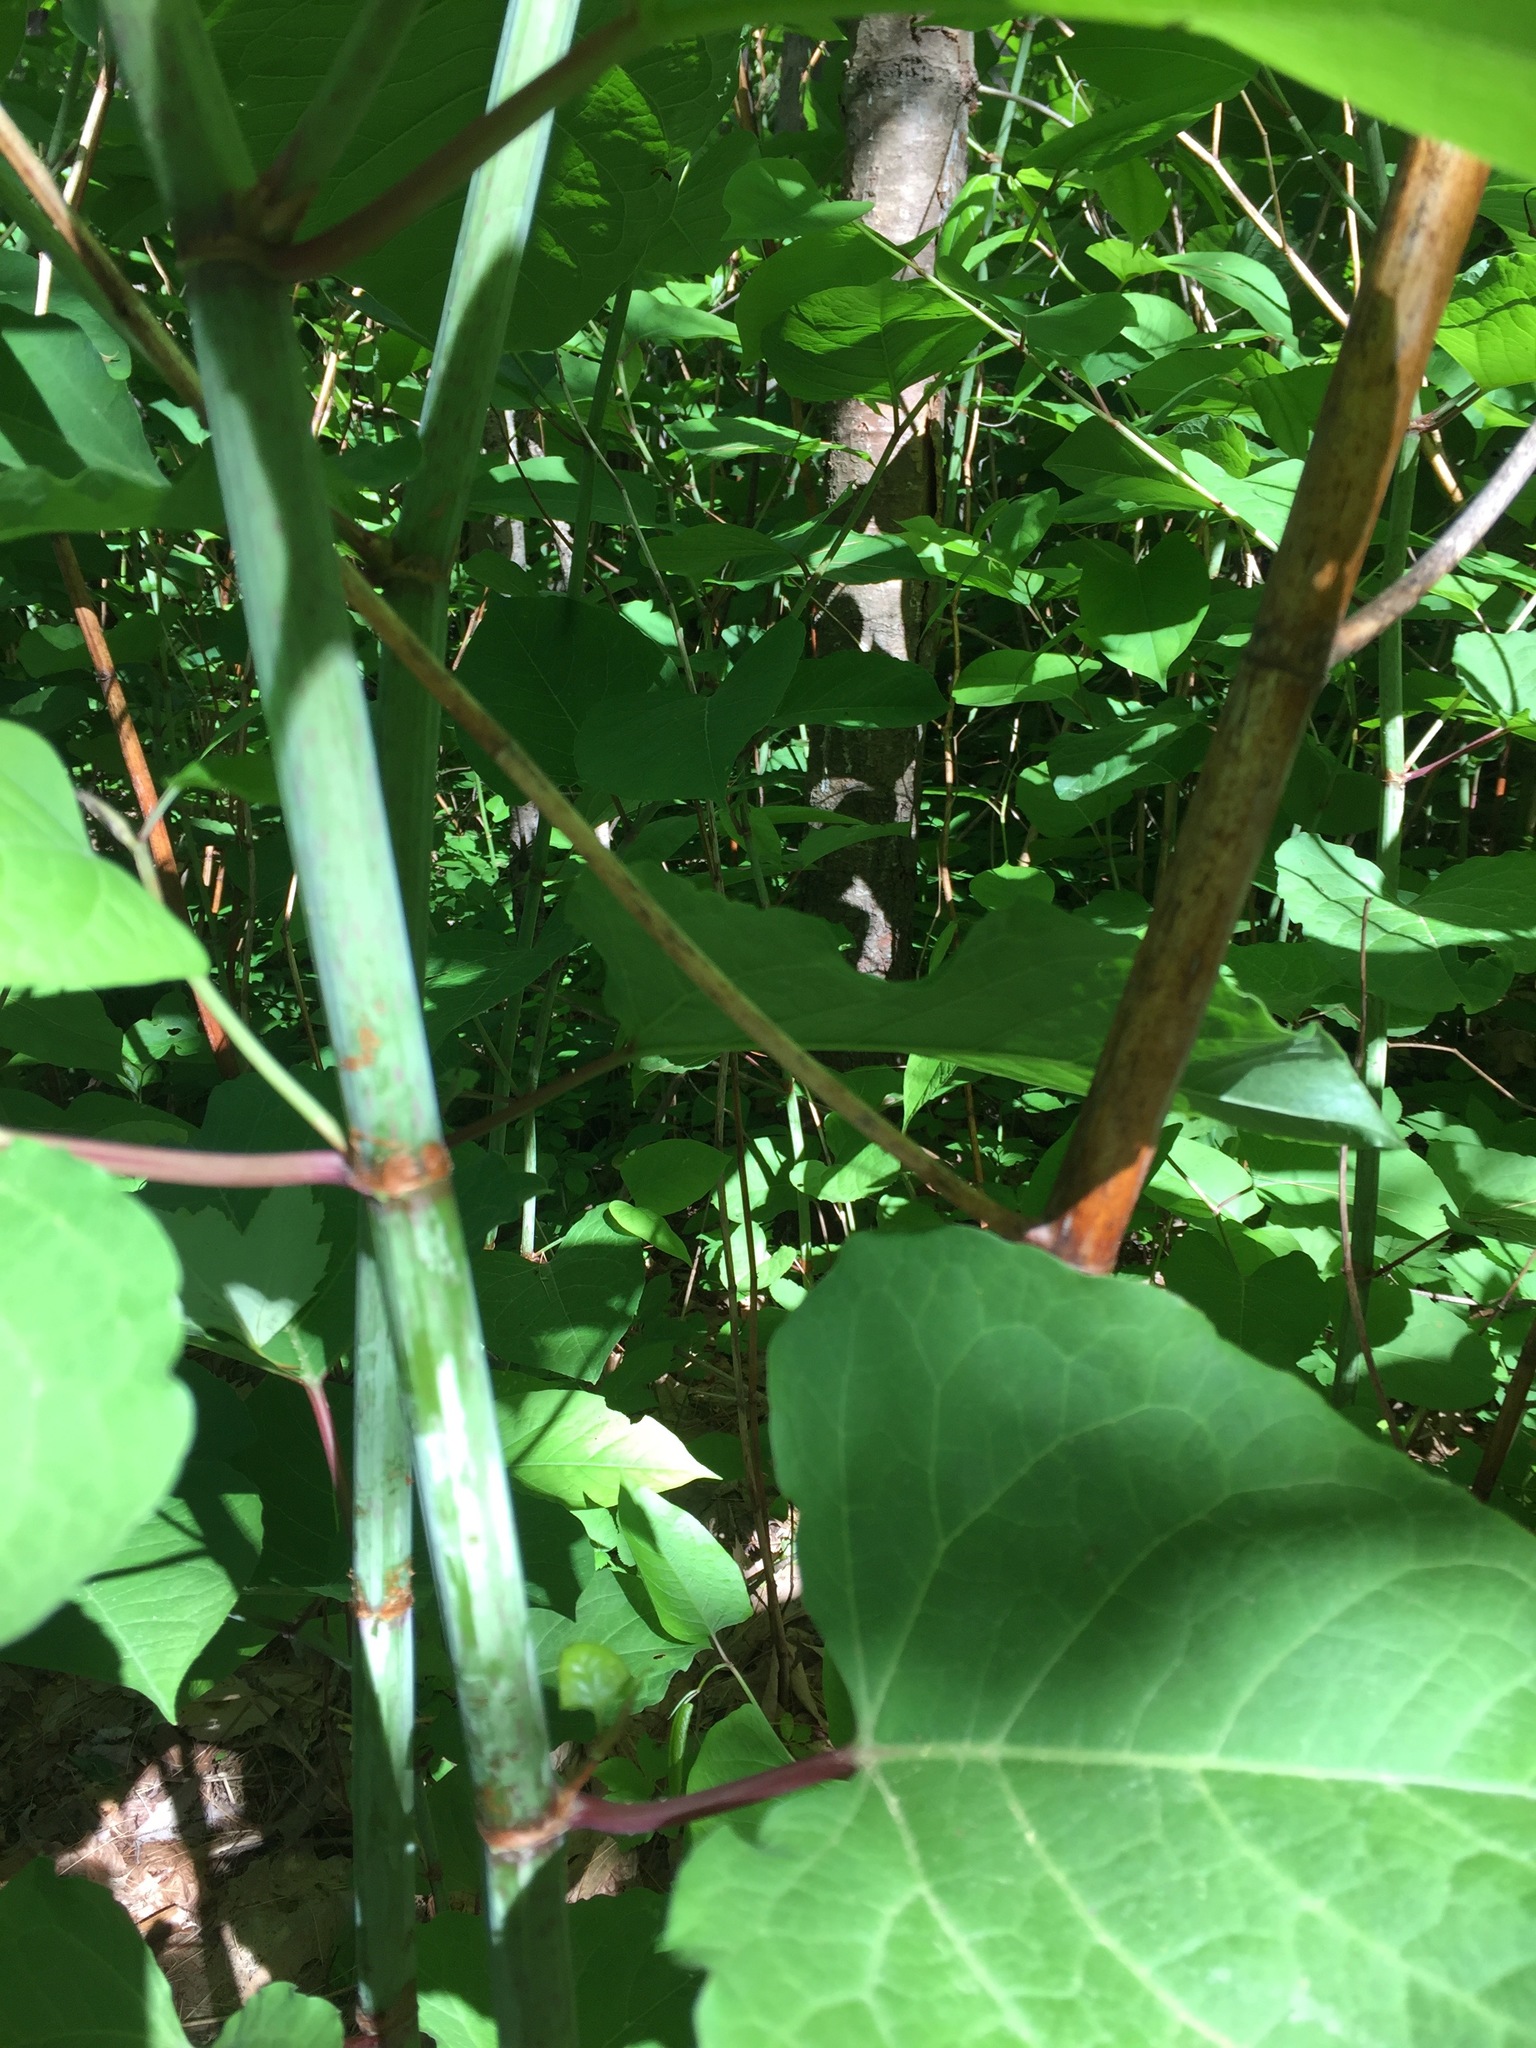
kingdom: Plantae
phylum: Tracheophyta
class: Magnoliopsida
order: Caryophyllales
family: Polygonaceae
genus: Reynoutria
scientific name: Reynoutria japonica
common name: Japanese knotweed
